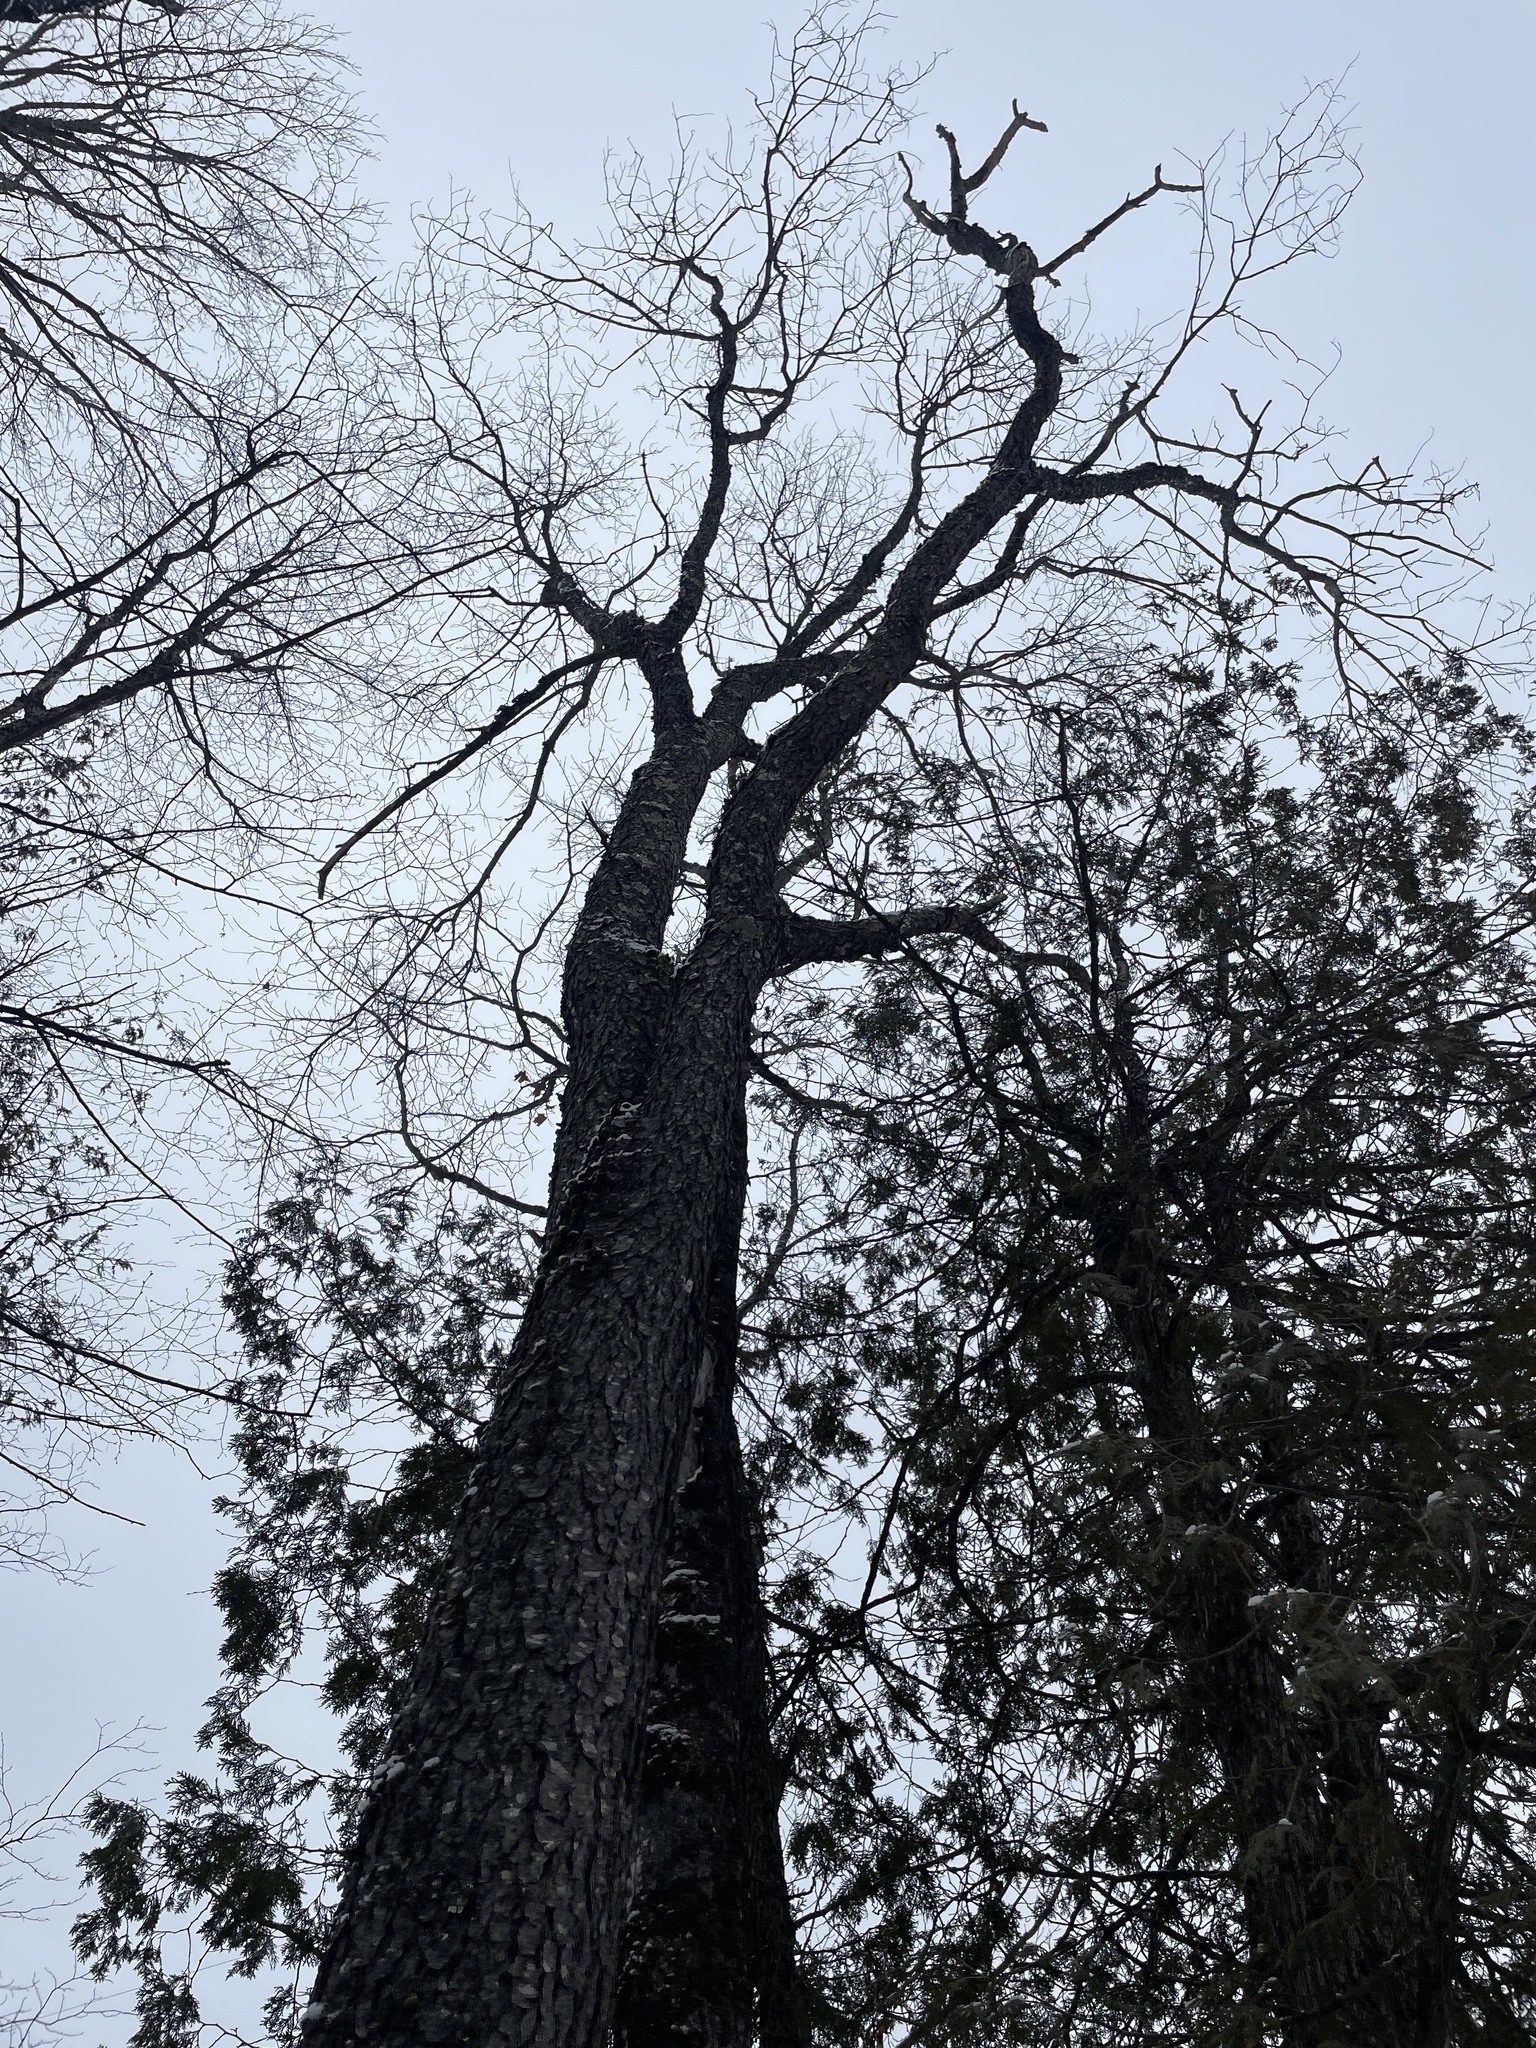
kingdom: Plantae
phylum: Tracheophyta
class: Magnoliopsida
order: Rosales
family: Rosaceae
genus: Prunus
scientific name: Prunus serotina
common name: Black cherry
